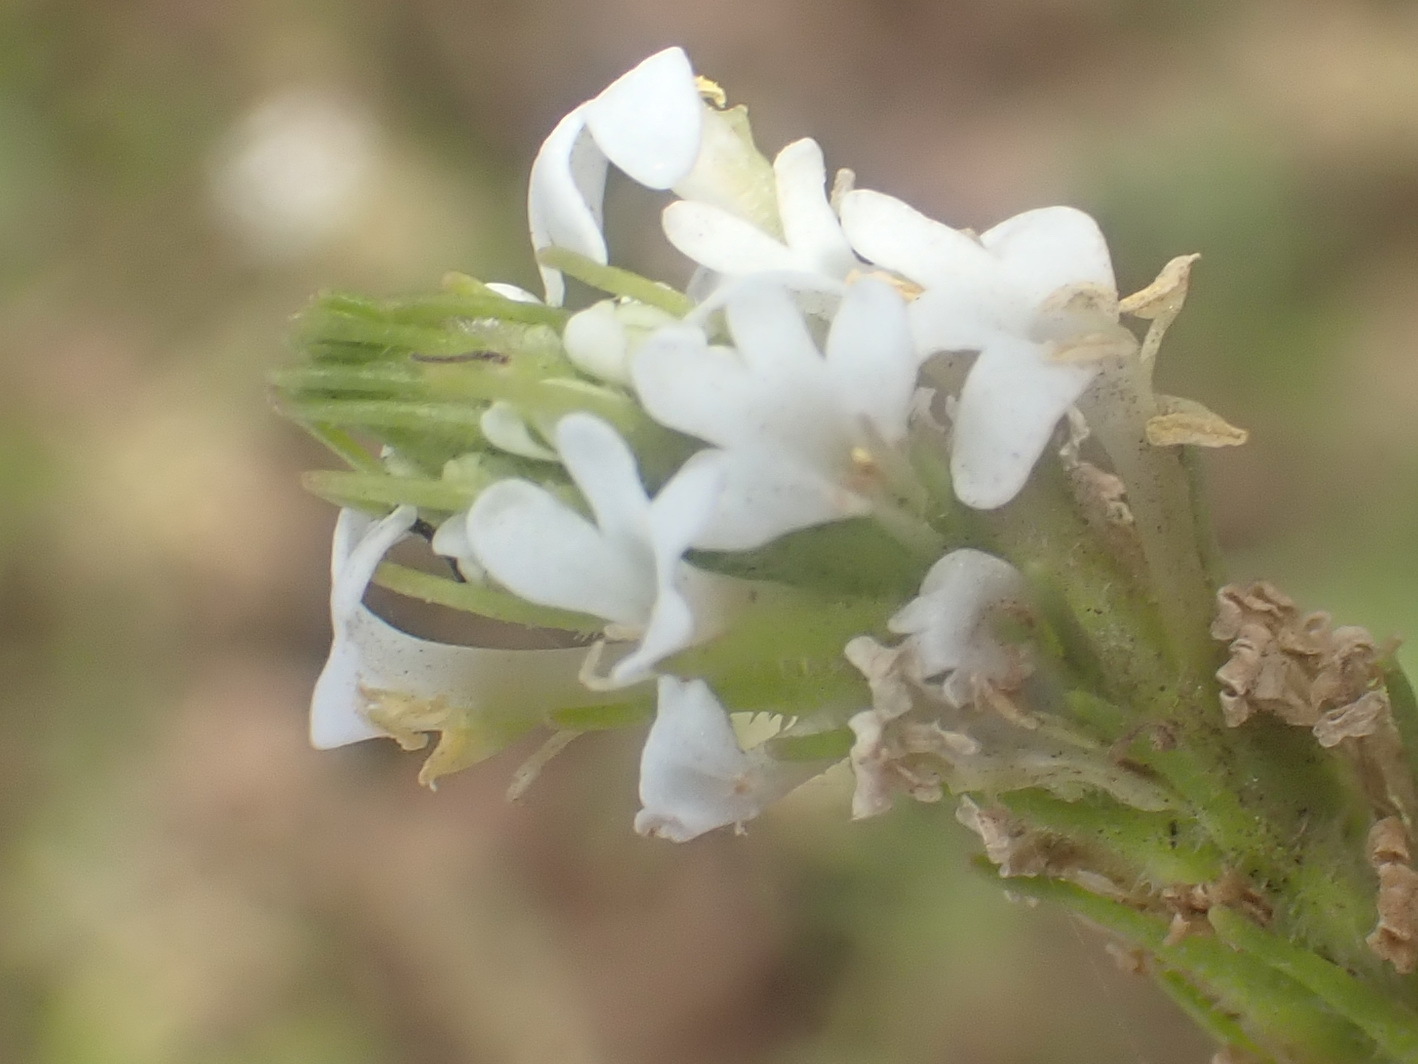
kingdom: Plantae
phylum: Tracheophyta
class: Magnoliopsida
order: Lamiales
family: Scrophulariaceae
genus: Dischisma
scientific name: Dischisma ciliatum
